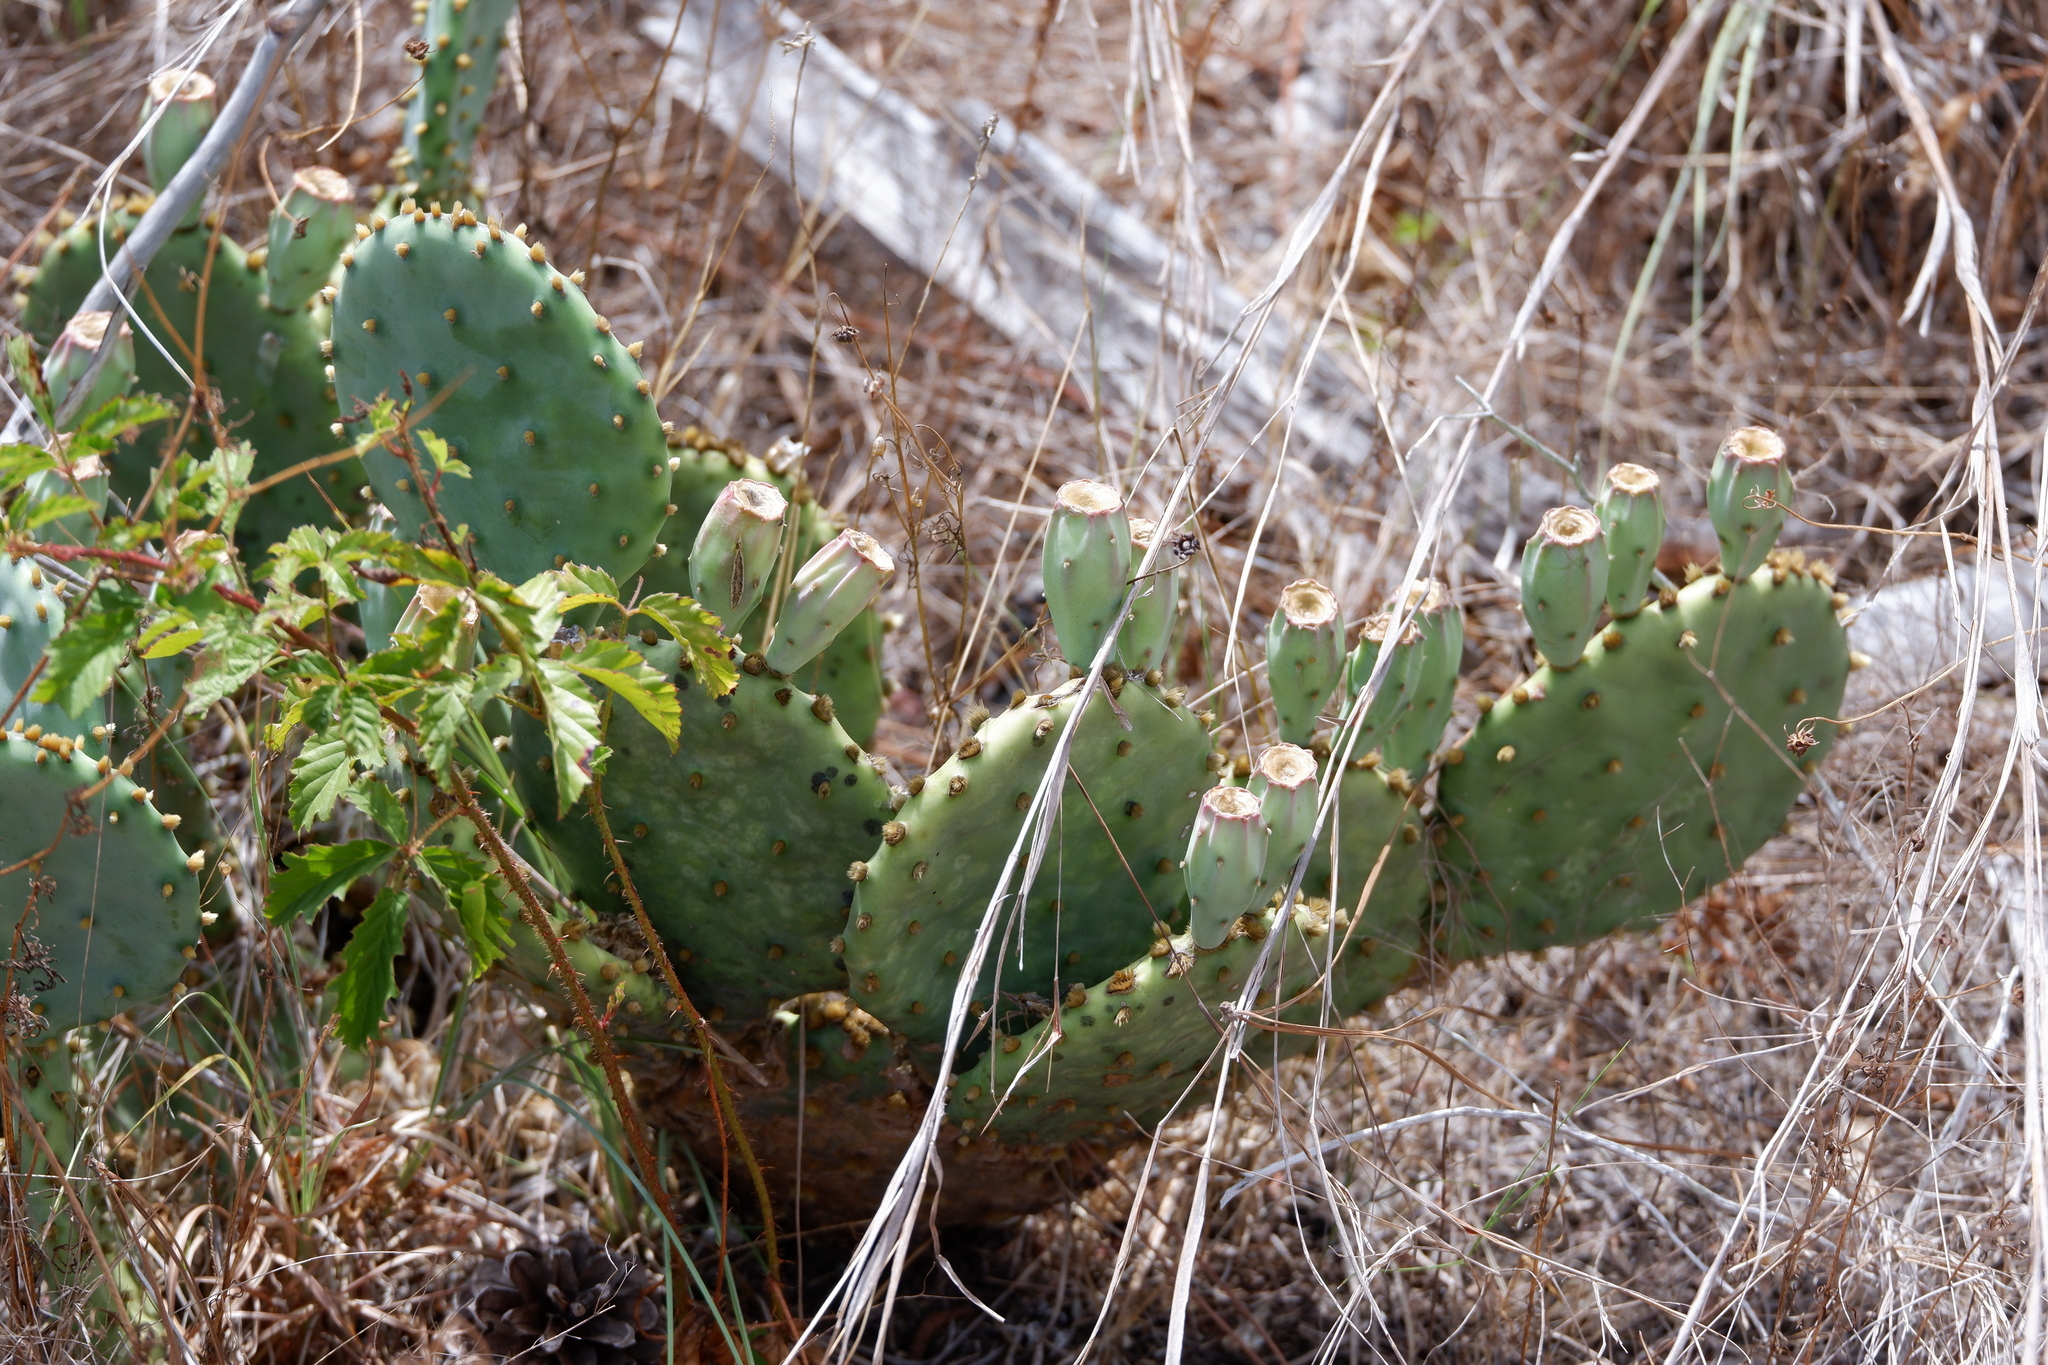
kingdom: Plantae
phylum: Tracheophyta
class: Magnoliopsida
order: Caryophyllales
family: Cactaceae
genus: Opuntia
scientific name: Opuntia macrorhiza
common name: Grassland pricklypear
